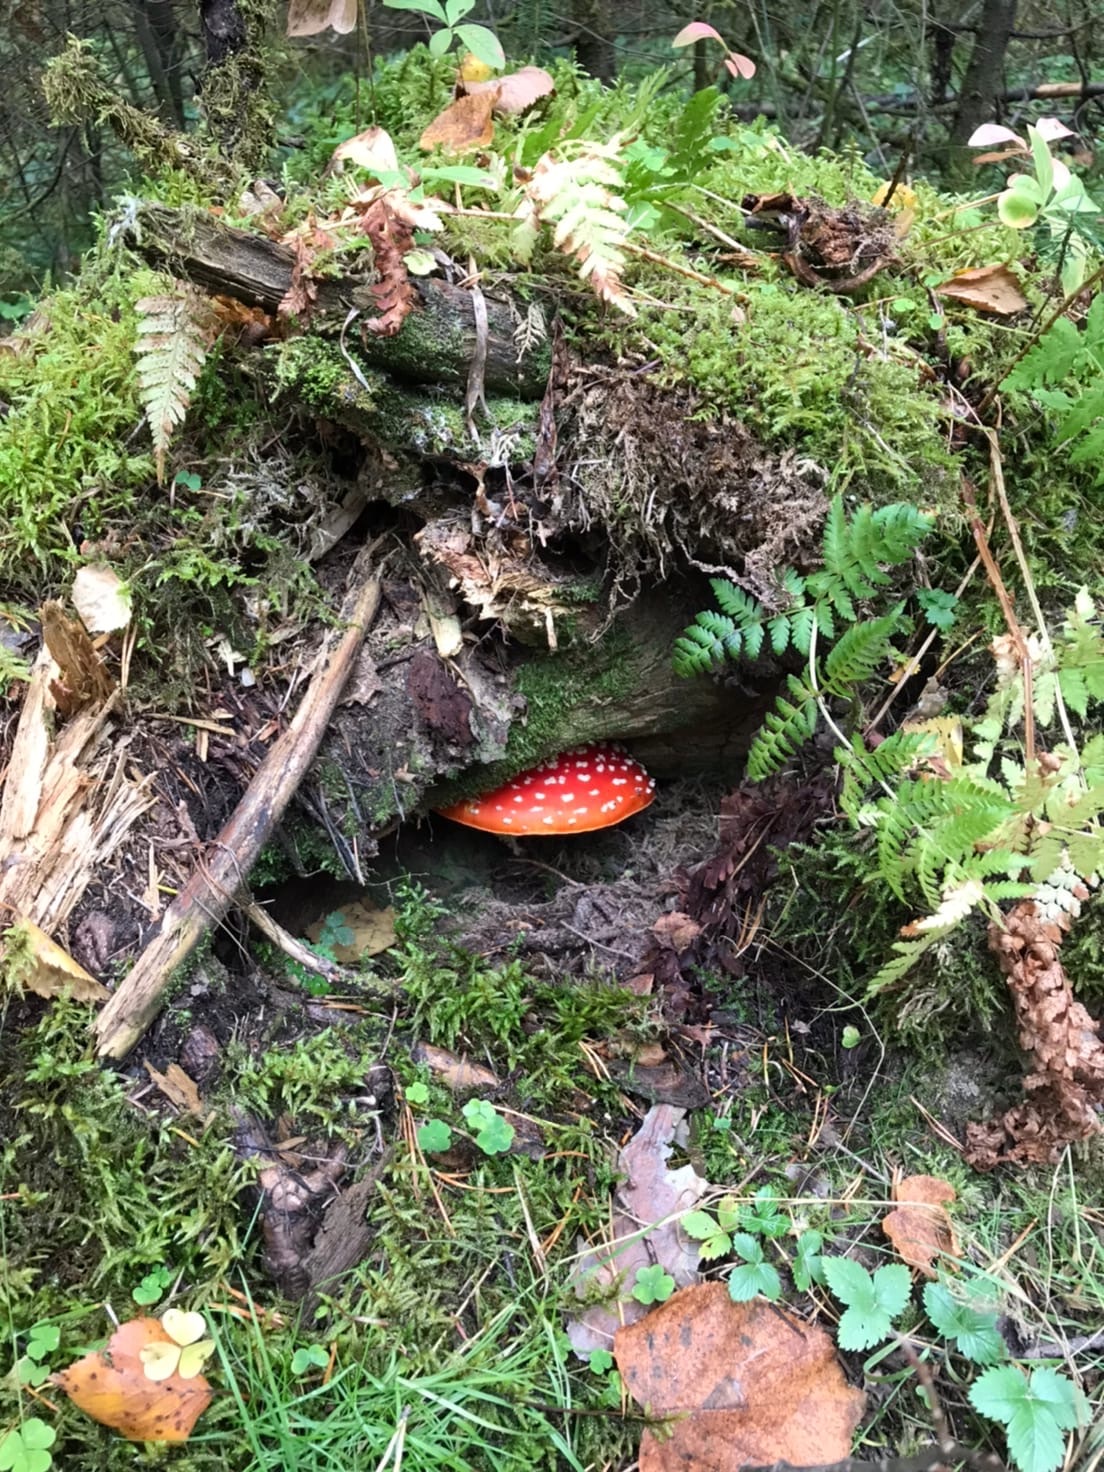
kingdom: Fungi
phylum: Basidiomycota
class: Agaricomycetes
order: Agaricales
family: Amanitaceae
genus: Amanita
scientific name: Amanita muscaria
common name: Fly agaric
